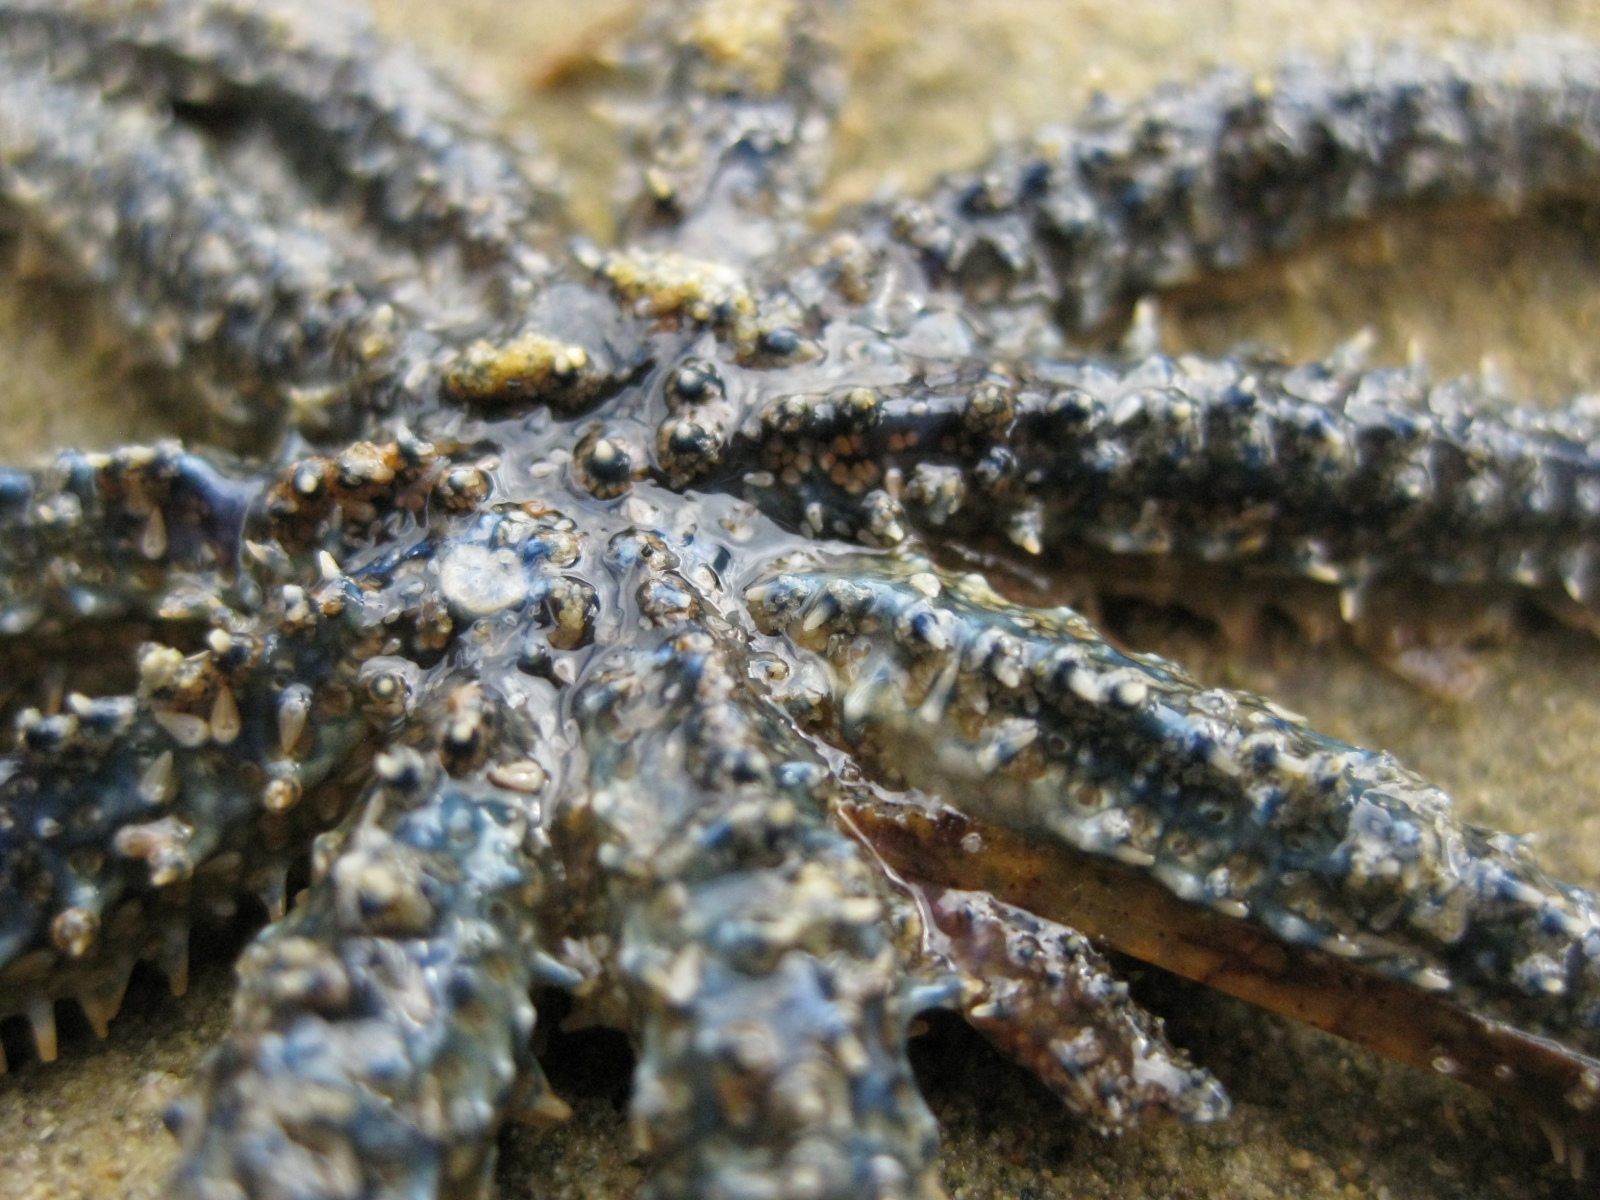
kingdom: Animalia
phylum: Echinodermata
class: Asteroidea
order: Forcipulatida
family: Asteriidae
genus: Coscinasterias
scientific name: Coscinasterias muricata
